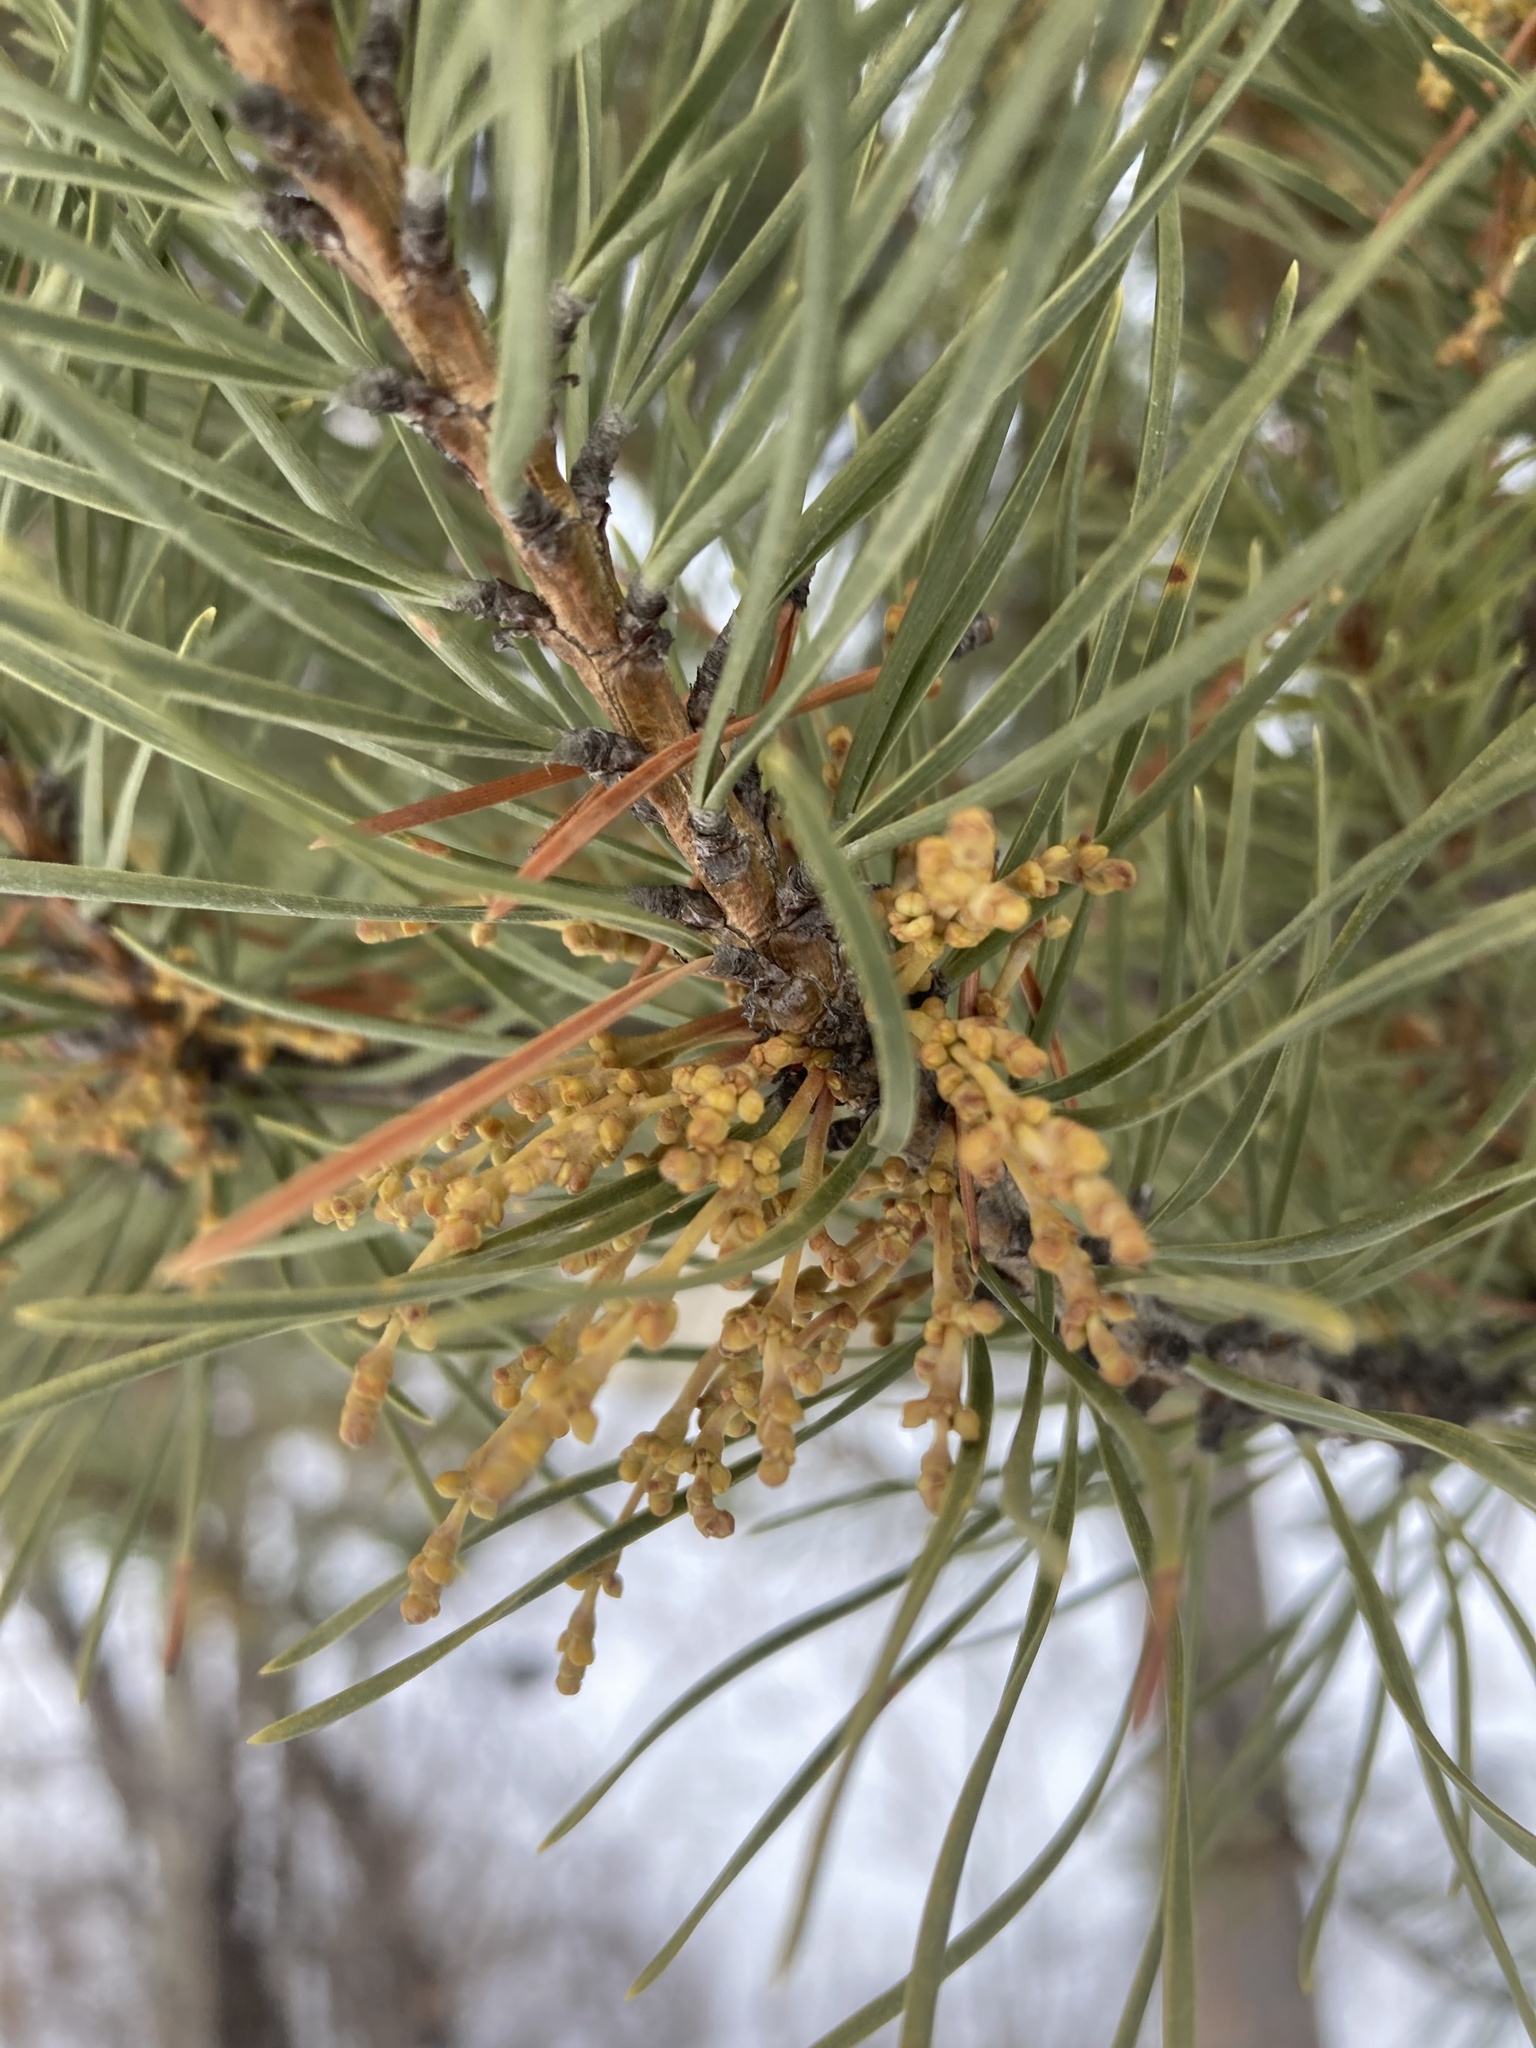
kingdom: Plantae
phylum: Tracheophyta
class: Magnoliopsida
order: Santalales
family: Viscaceae
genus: Arceuthobium
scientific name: Arceuthobium americanum
